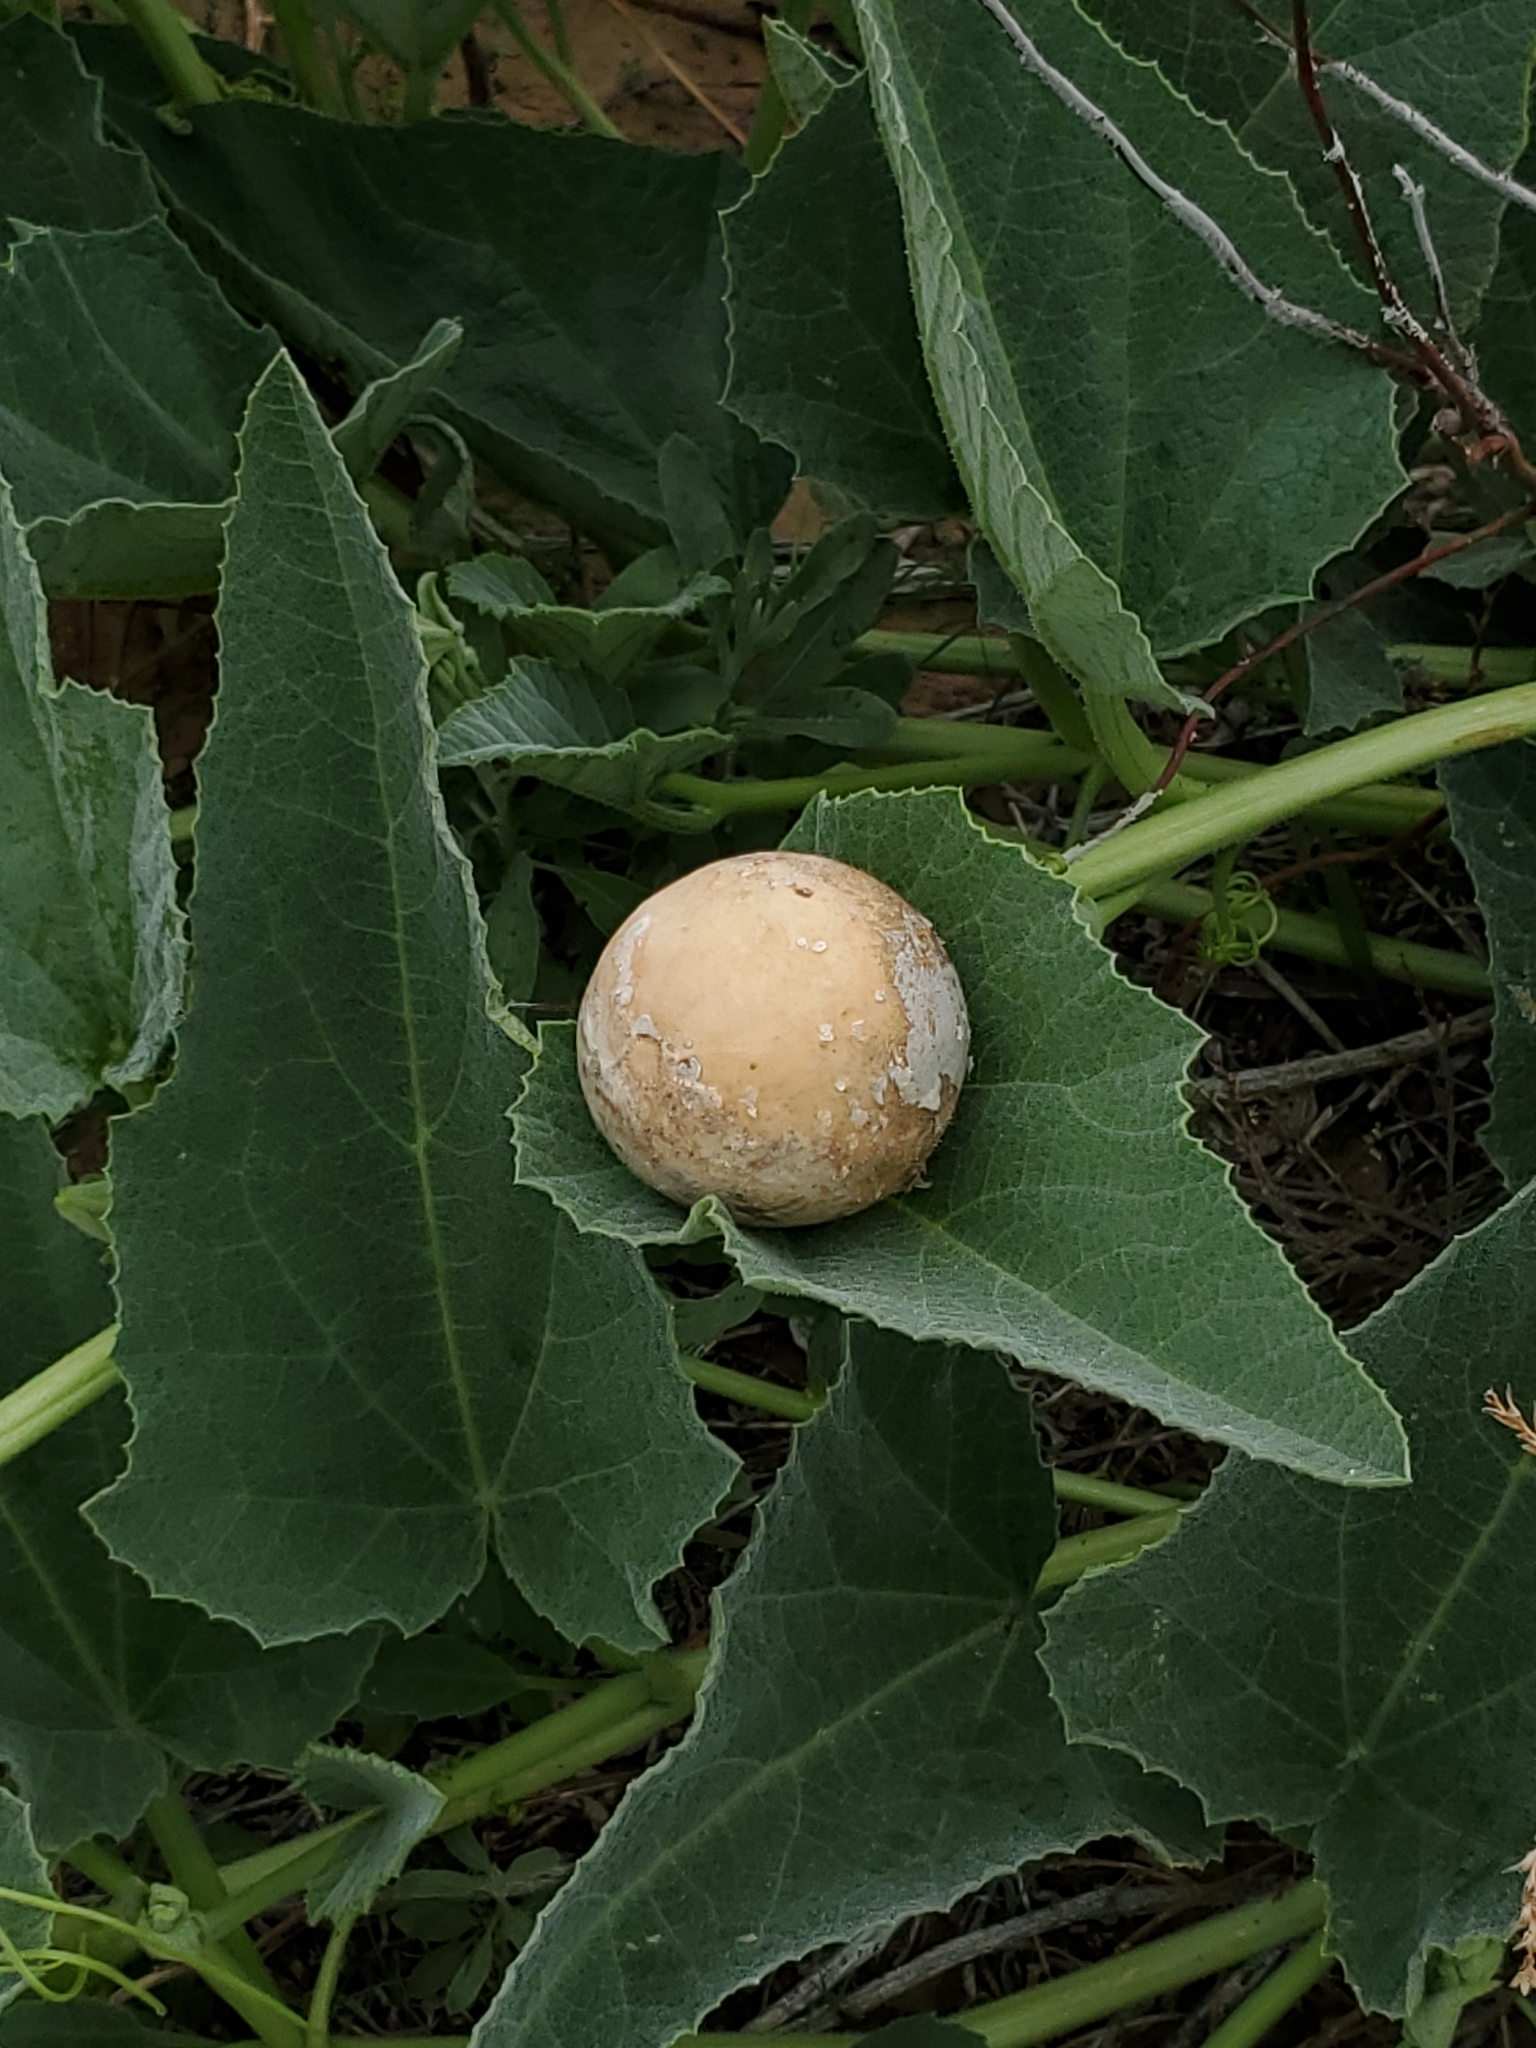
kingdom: Plantae
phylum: Tracheophyta
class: Magnoliopsida
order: Cucurbitales
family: Cucurbitaceae
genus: Cucurbita
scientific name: Cucurbita foetidissima
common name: Buffalo gourd
